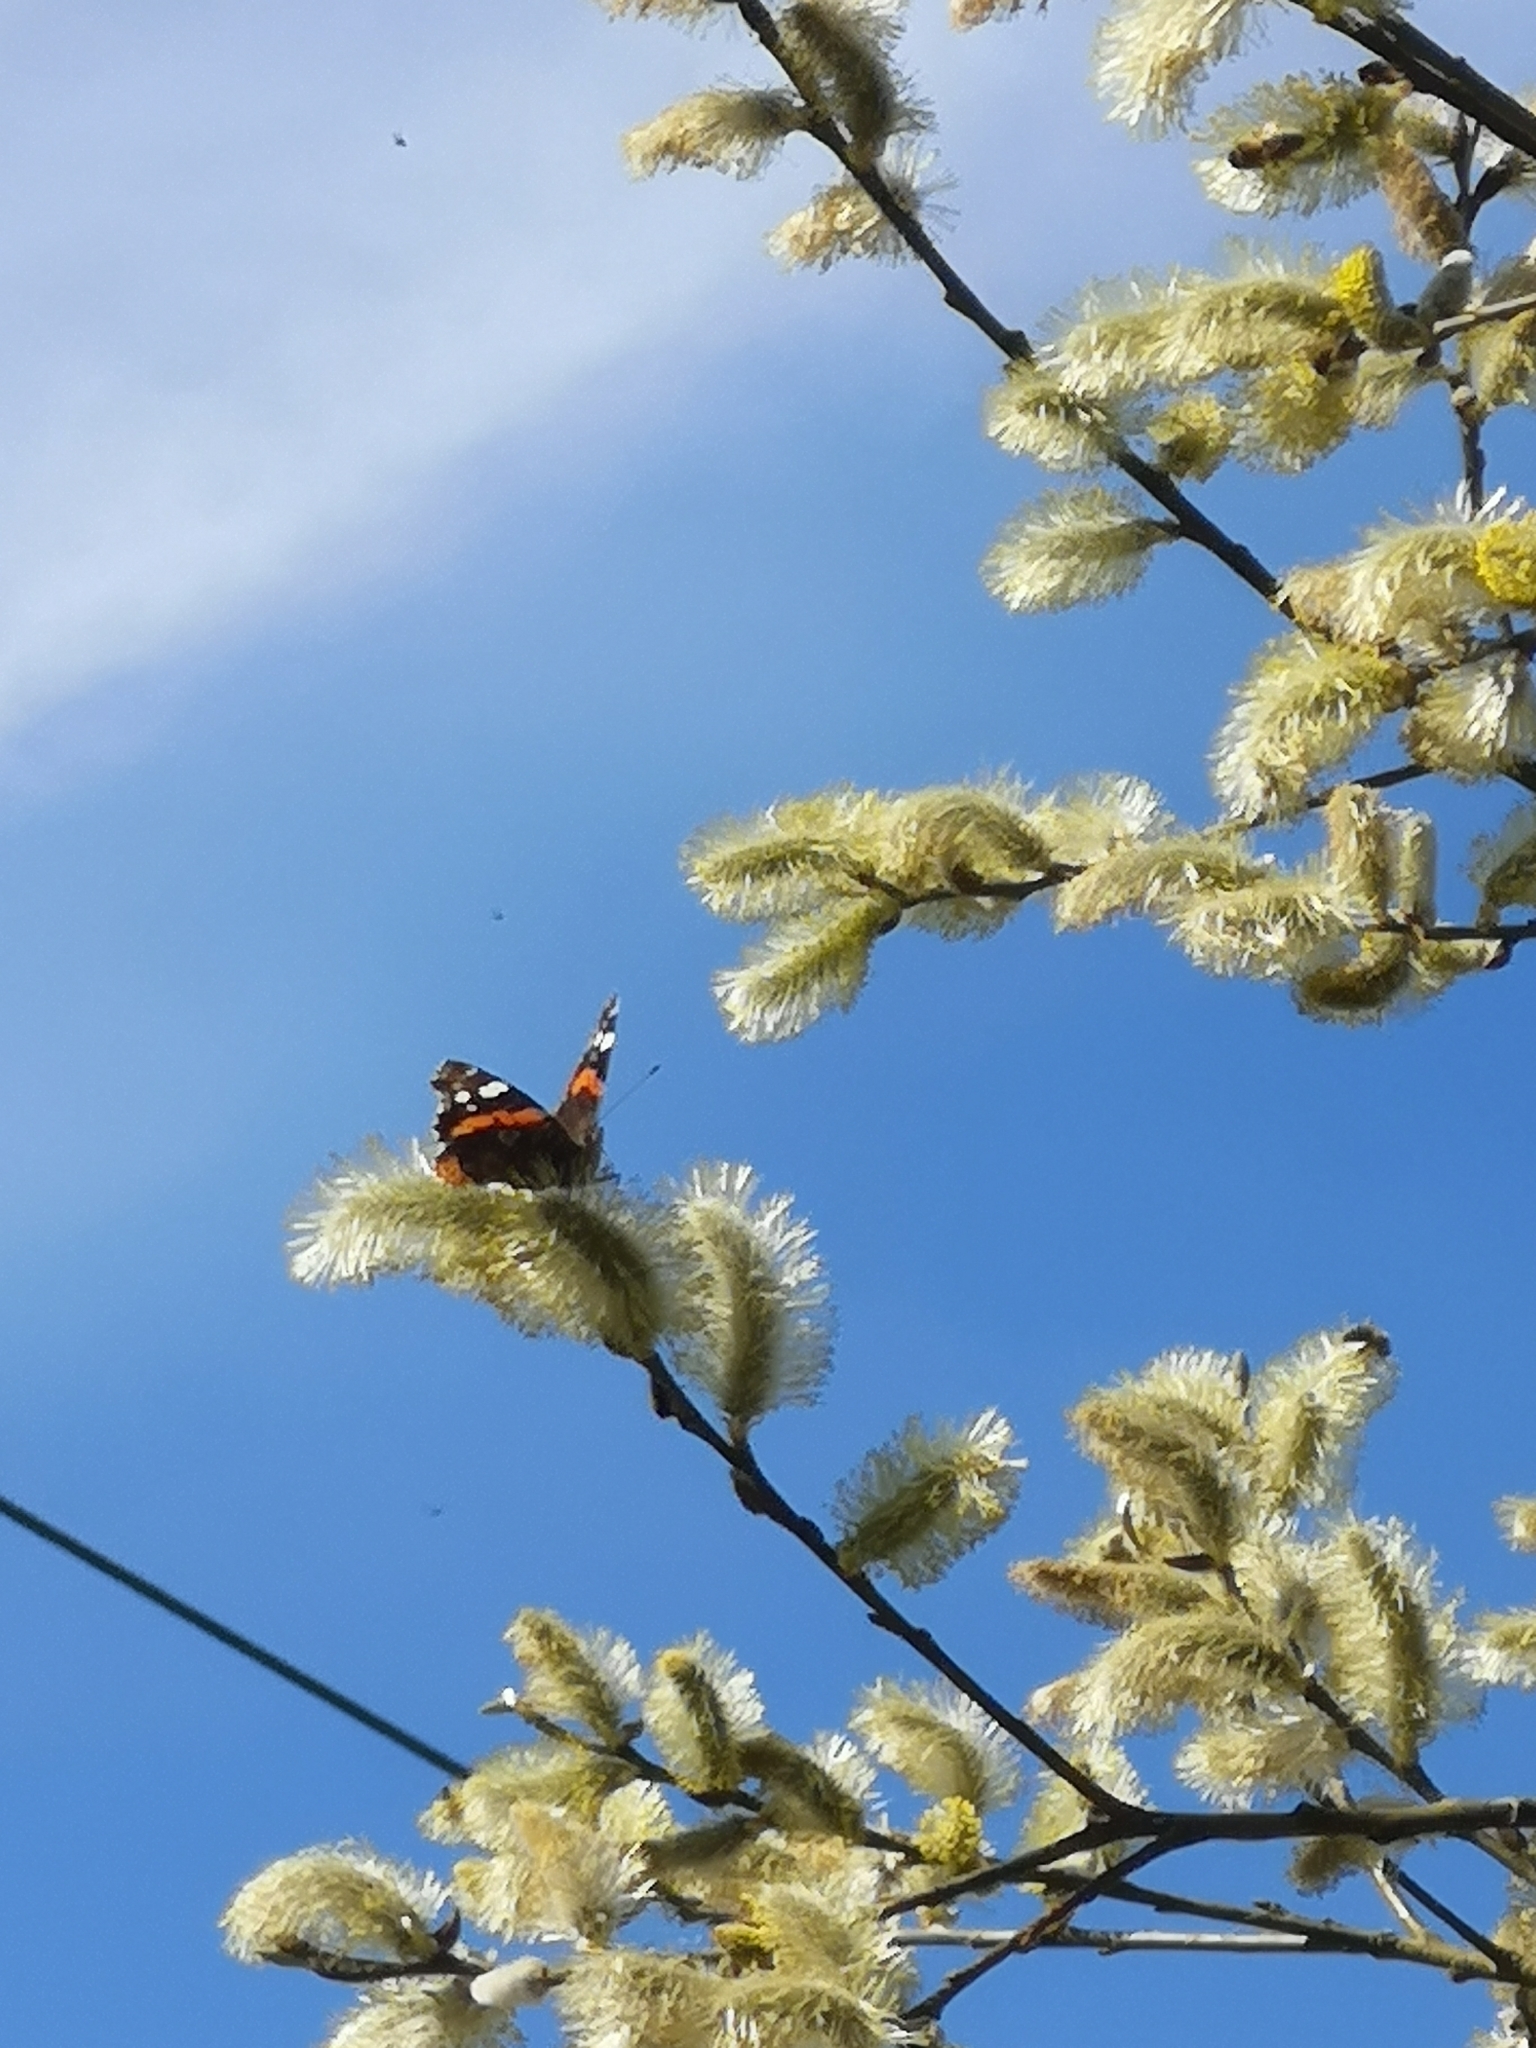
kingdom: Animalia
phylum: Arthropoda
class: Insecta
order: Lepidoptera
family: Nymphalidae
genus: Vanessa
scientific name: Vanessa atalanta
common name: Red admiral
